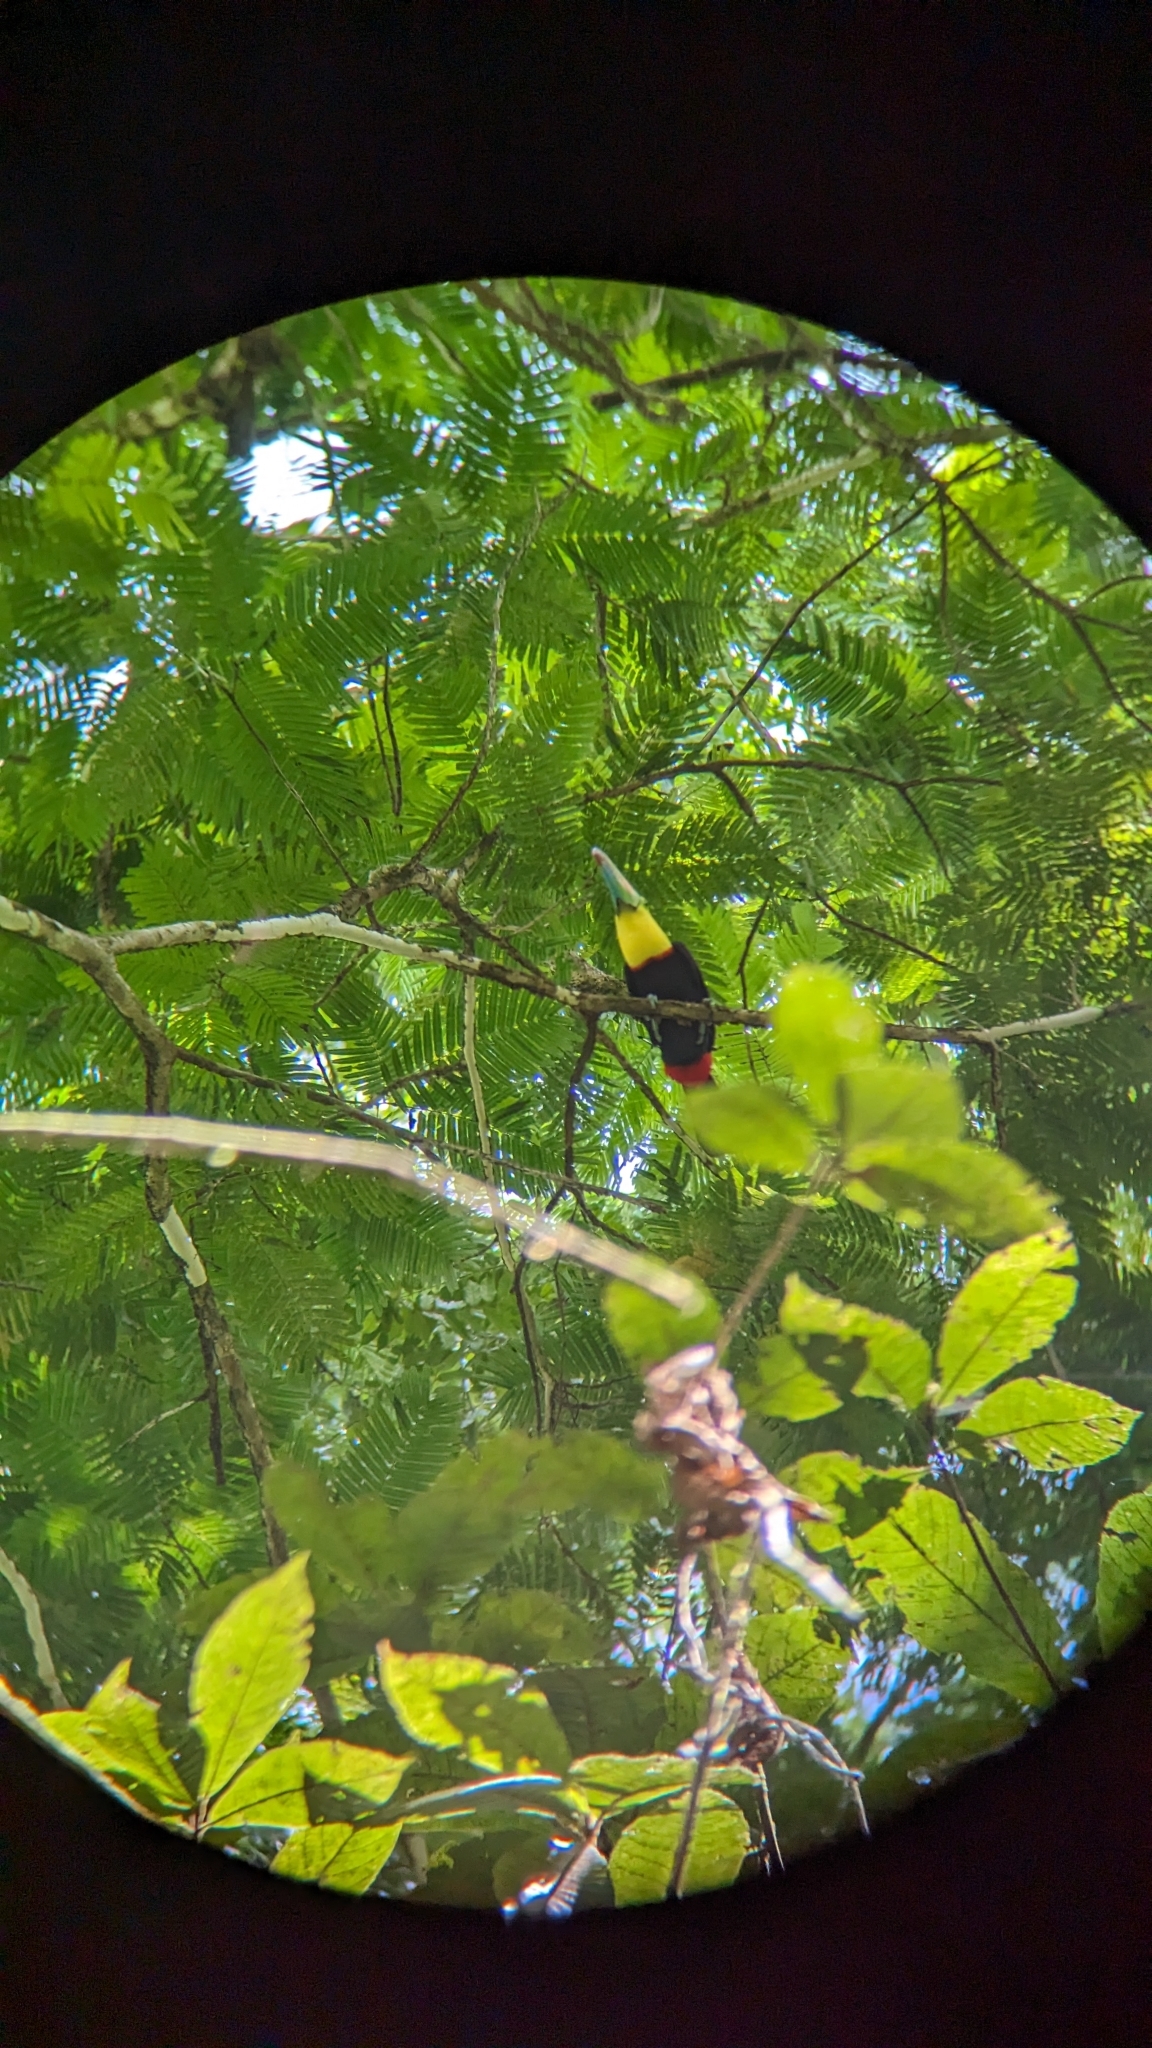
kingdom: Animalia
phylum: Chordata
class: Aves
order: Piciformes
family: Ramphastidae
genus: Ramphastos
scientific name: Ramphastos sulfuratus
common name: Keel-billed toucan
